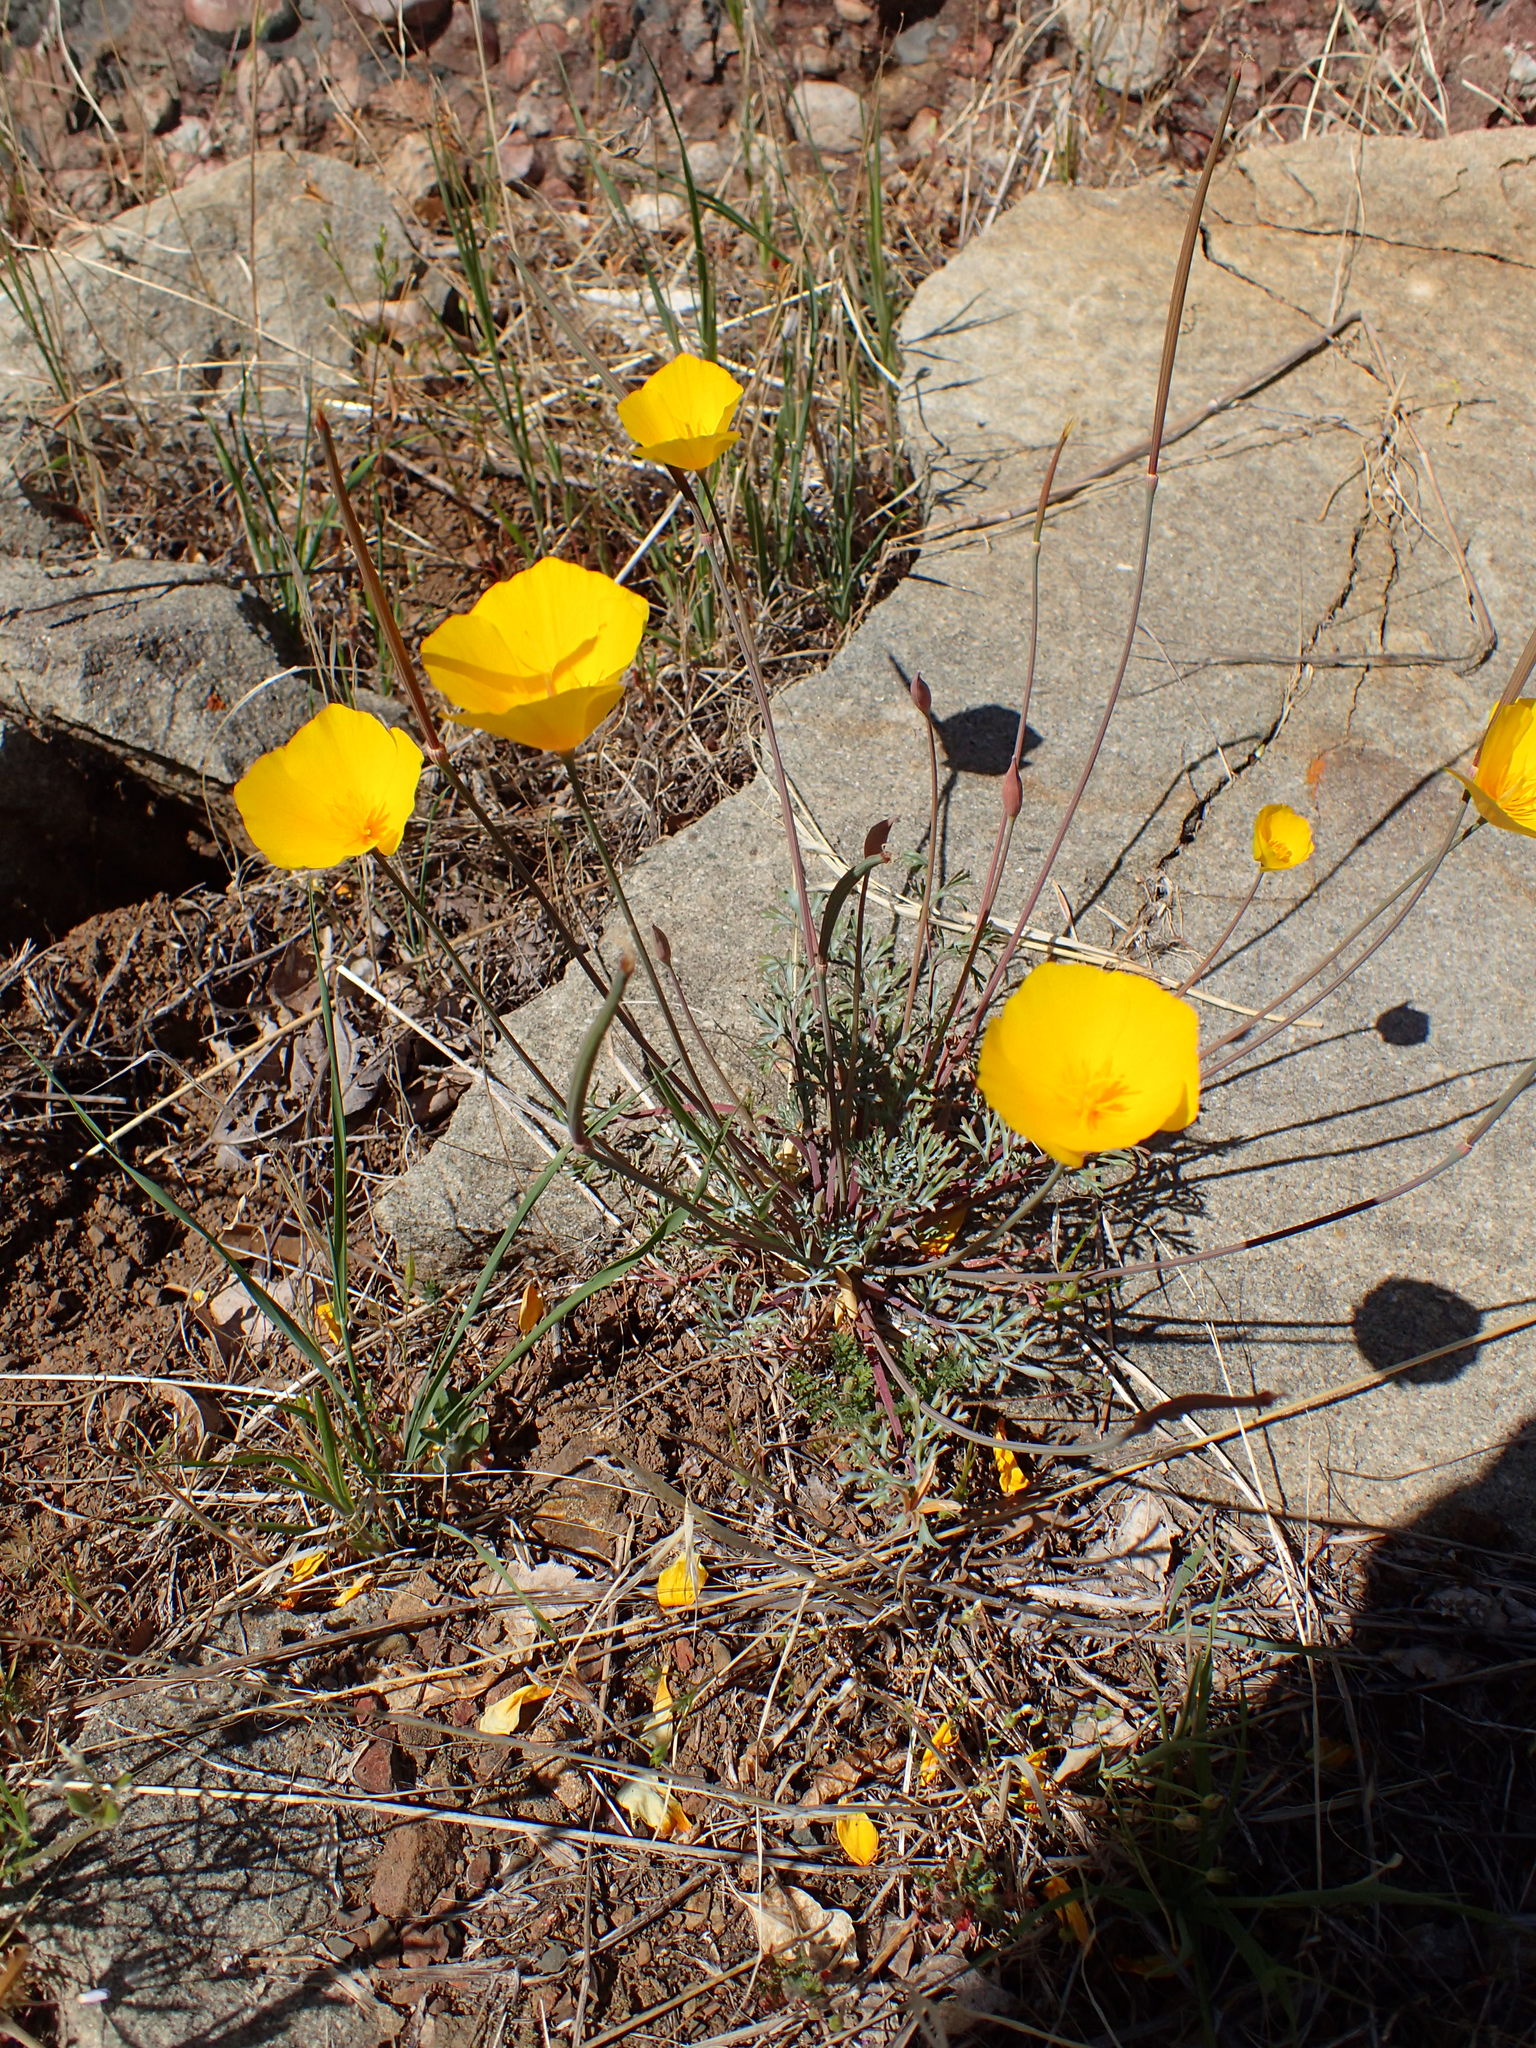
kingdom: Plantae
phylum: Tracheophyta
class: Magnoliopsida
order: Ranunculales
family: Papaveraceae
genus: Eschscholzia
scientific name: Eschscholzia caespitosa
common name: Tufted california-poppy
